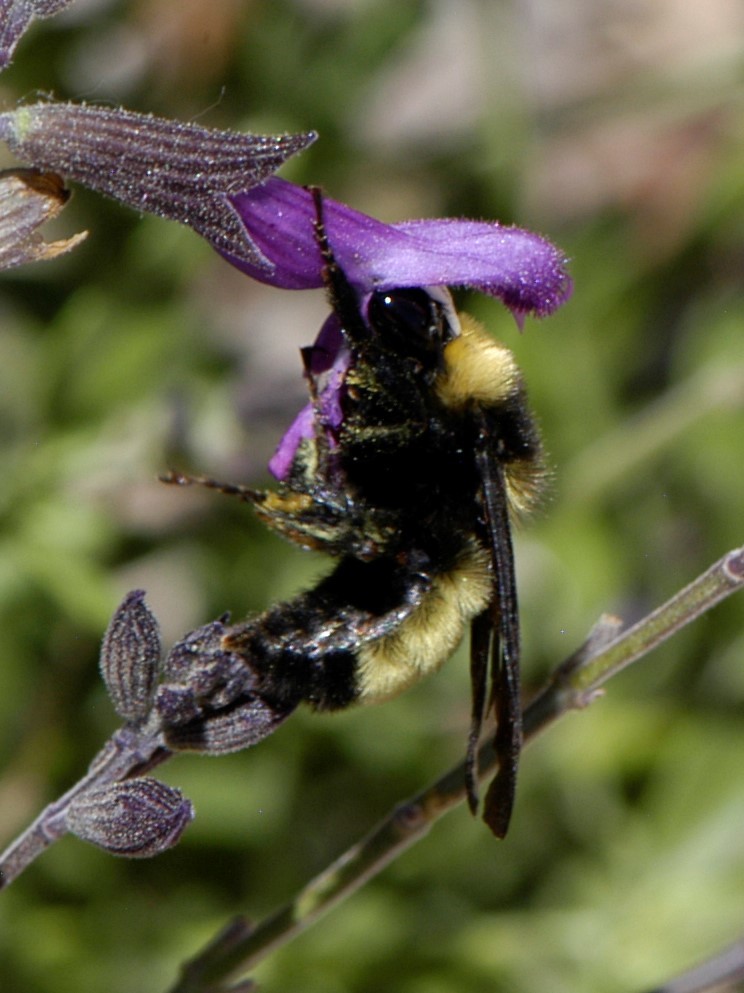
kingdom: Animalia
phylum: Arthropoda
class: Insecta
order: Hymenoptera
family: Apidae
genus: Bombus
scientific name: Bombus pensylvanicus
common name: Bumble bee
